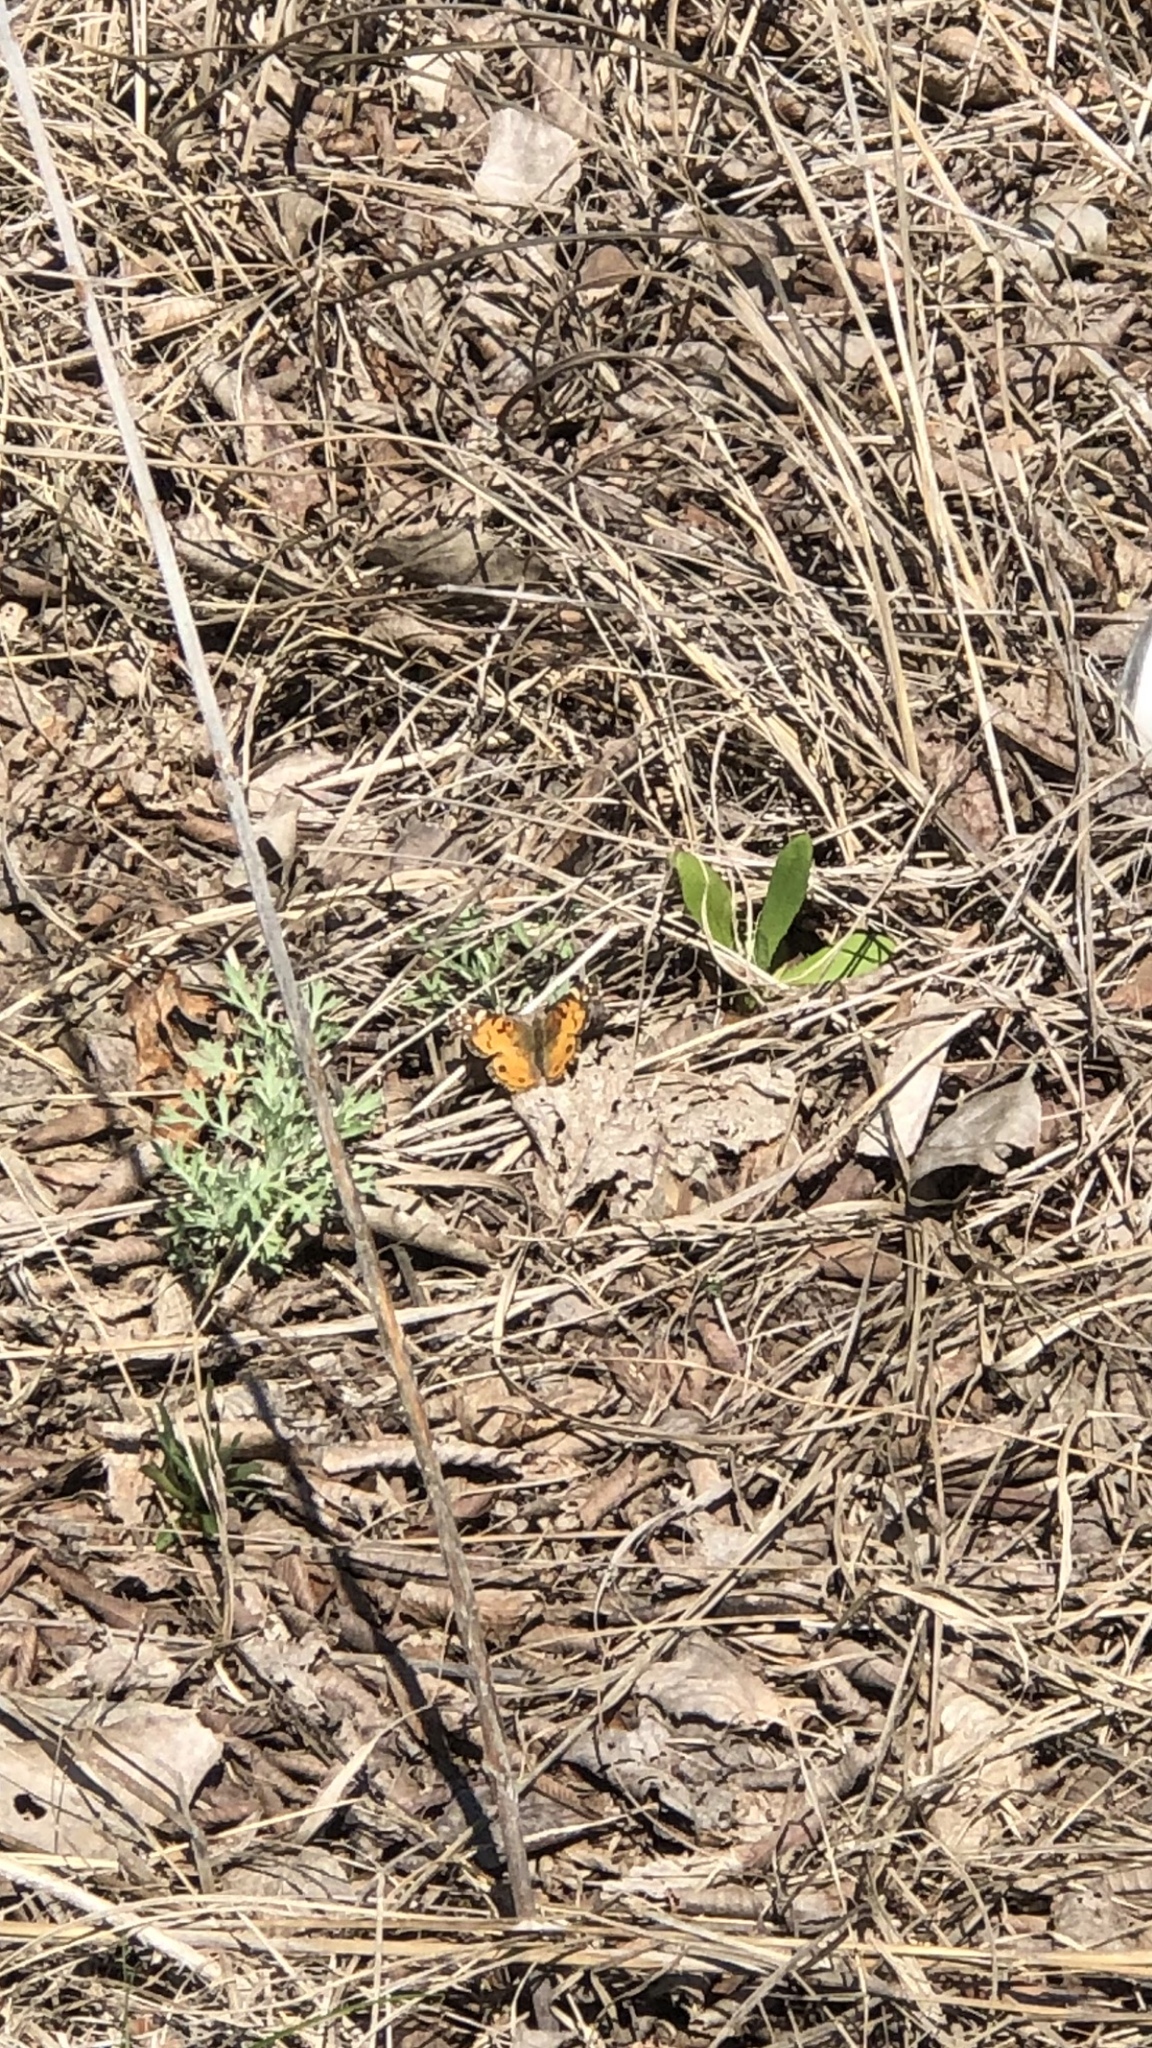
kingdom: Animalia
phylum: Arthropoda
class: Insecta
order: Lepidoptera
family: Nymphalidae
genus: Vanessa
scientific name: Vanessa virginiensis
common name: American lady
